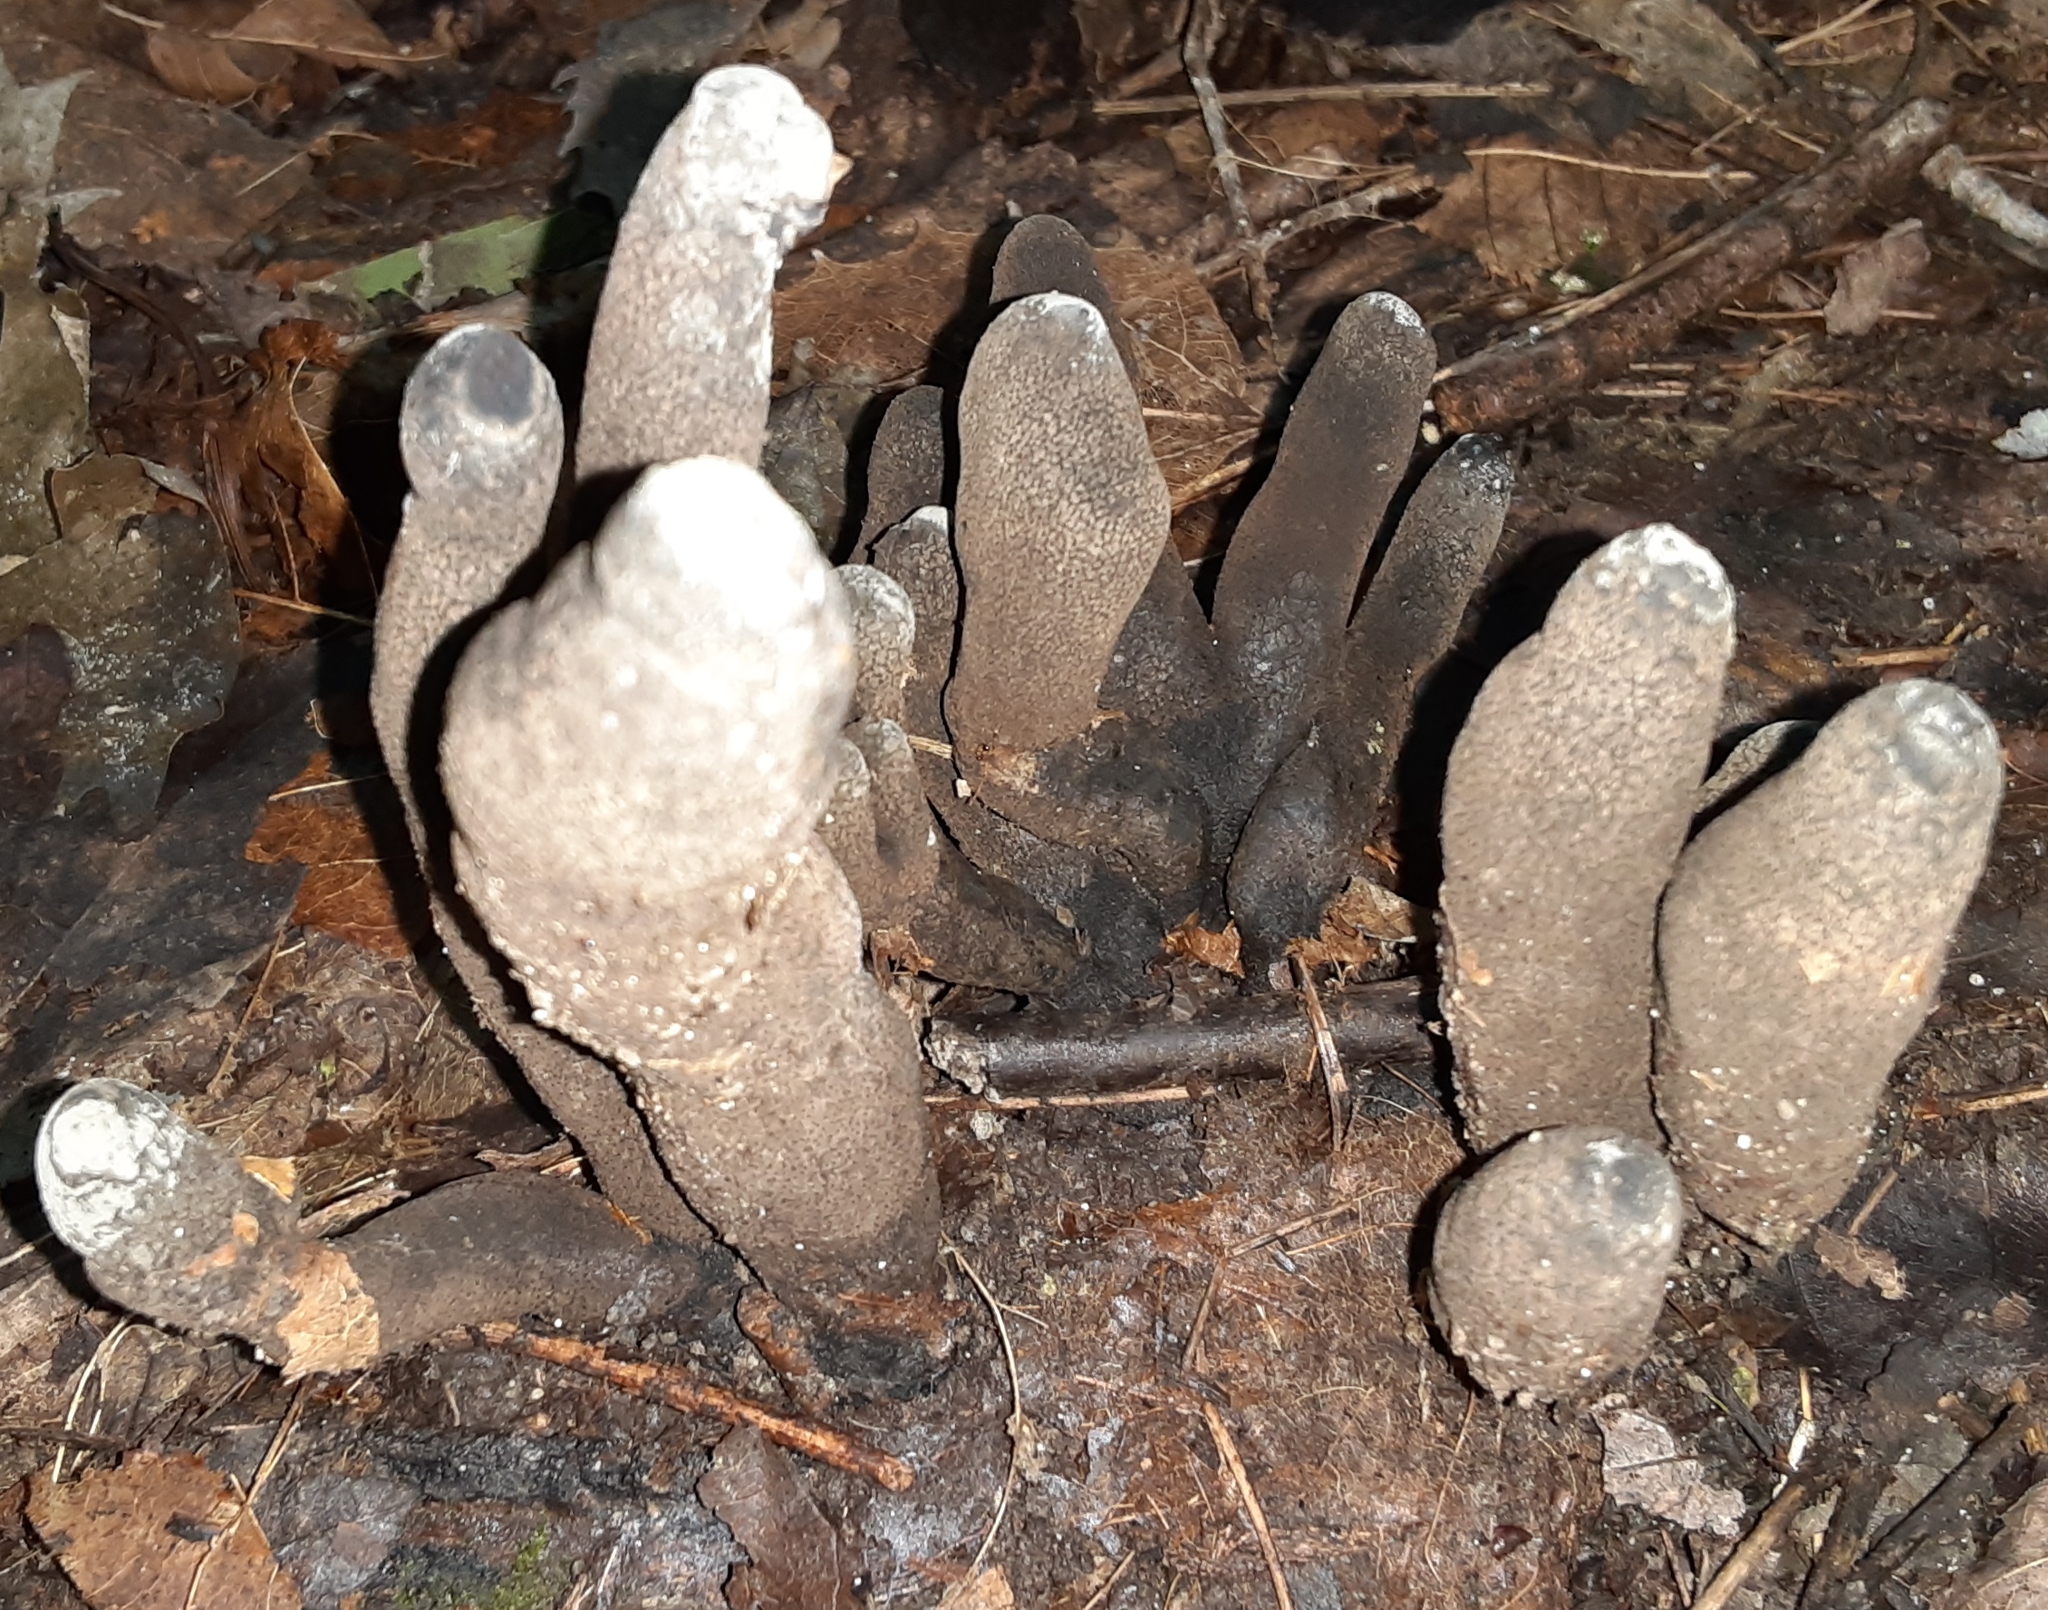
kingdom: Fungi
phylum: Ascomycota
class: Sordariomycetes
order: Xylariales
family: Xylariaceae
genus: Xylaria
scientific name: Xylaria polymorpha
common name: Dead man's fingers
